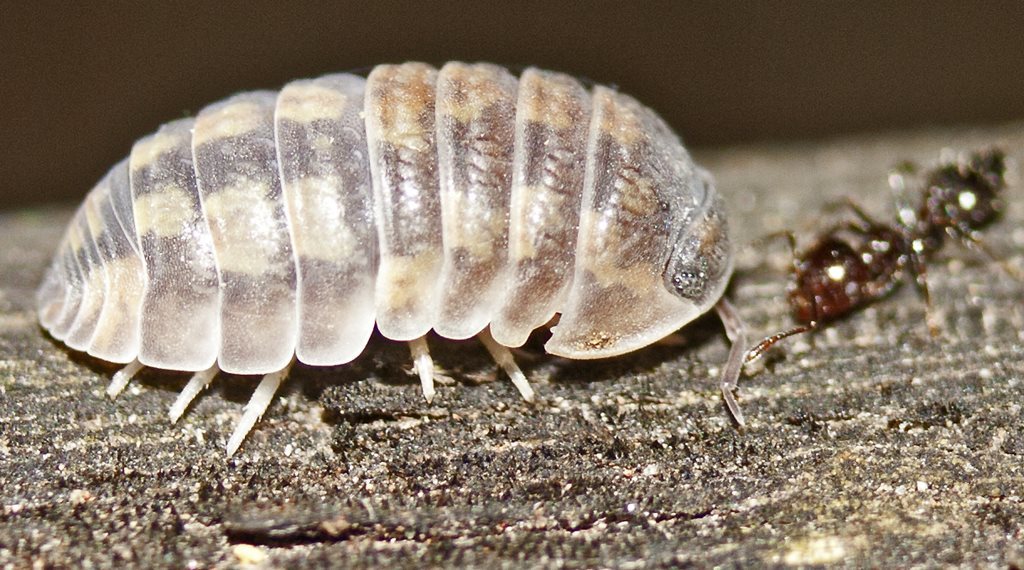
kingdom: Animalia
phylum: Arthropoda
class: Malacostraca
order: Isopoda
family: Armadillidae
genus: Cubaris
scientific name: Cubaris nigroflava
